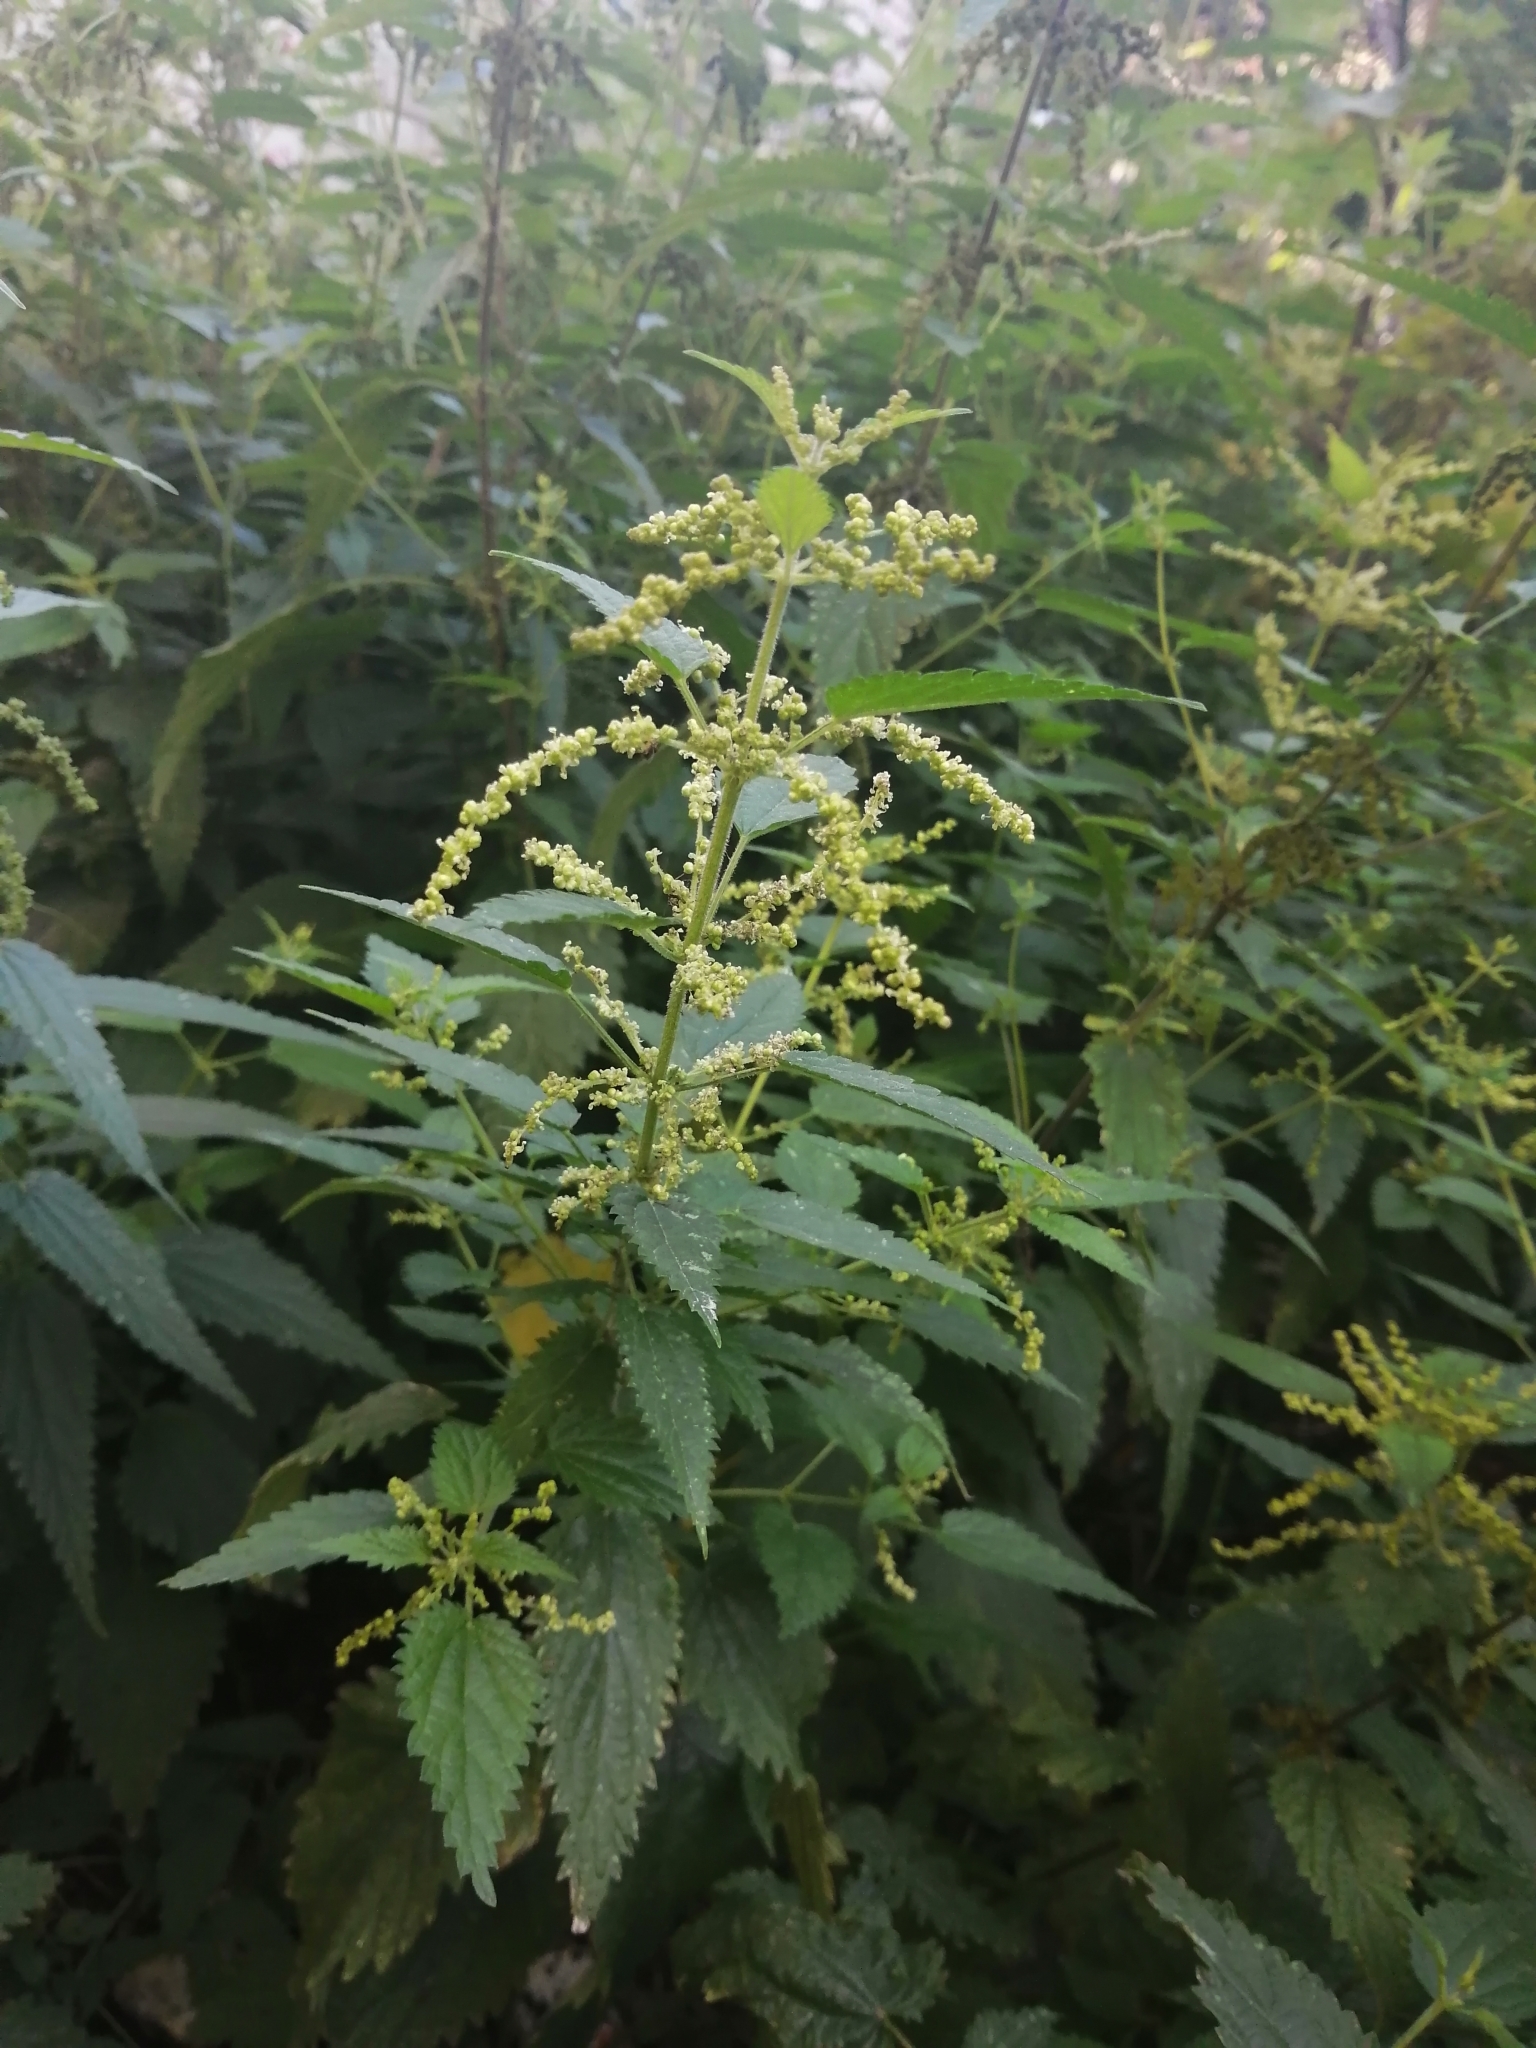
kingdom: Plantae
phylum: Tracheophyta
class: Magnoliopsida
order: Rosales
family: Urticaceae
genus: Urtica
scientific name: Urtica dioica
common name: Common nettle
